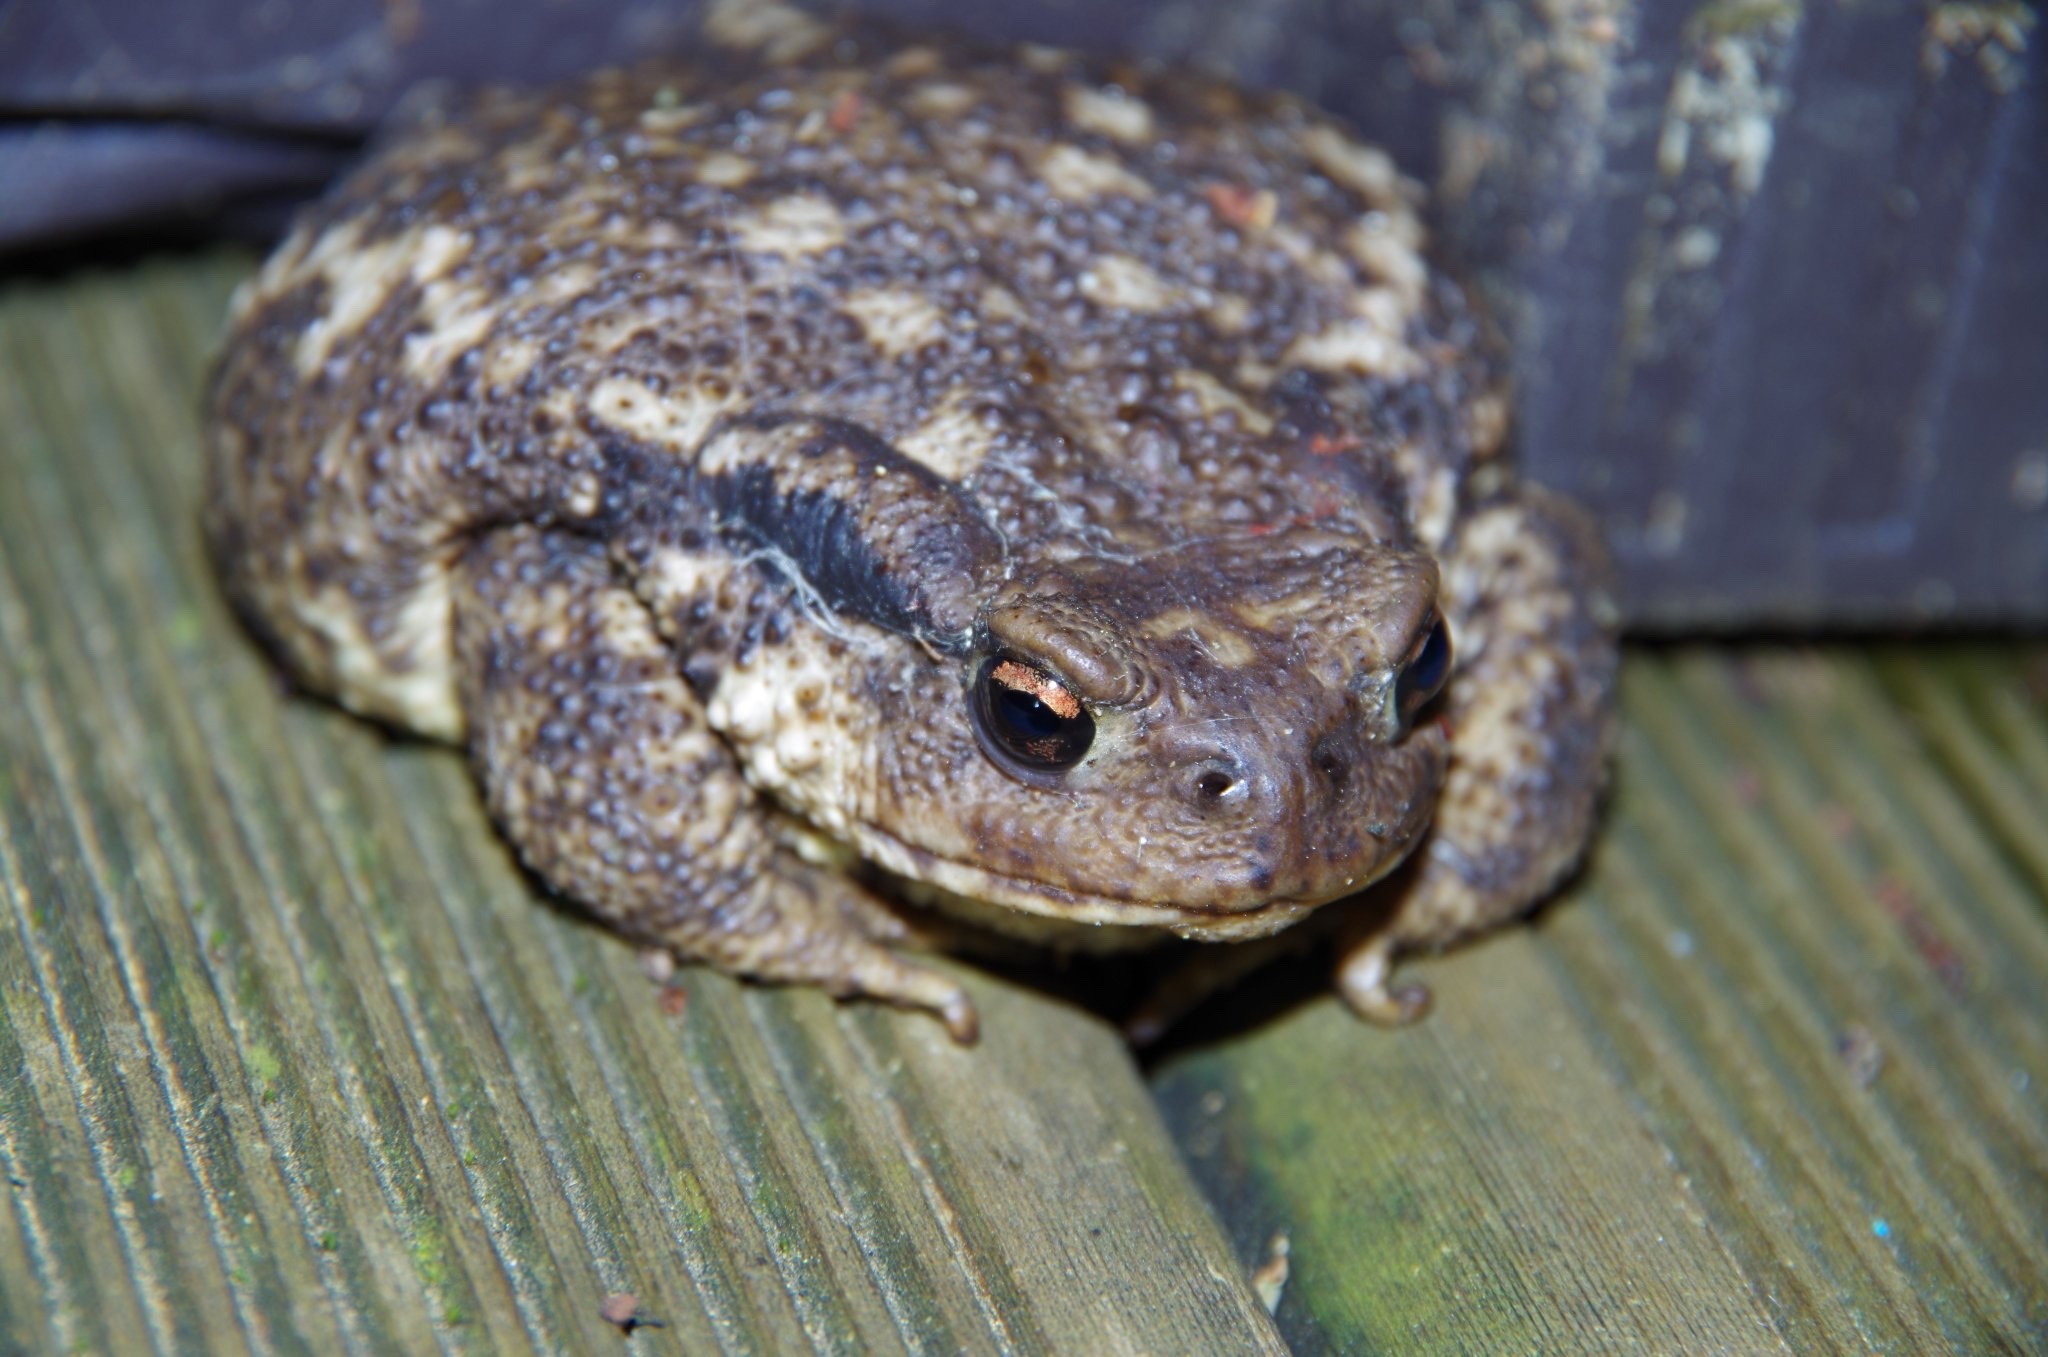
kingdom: Animalia
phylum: Chordata
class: Amphibia
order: Anura
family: Bufonidae
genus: Bufo
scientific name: Bufo spinosus
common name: Western common toad
